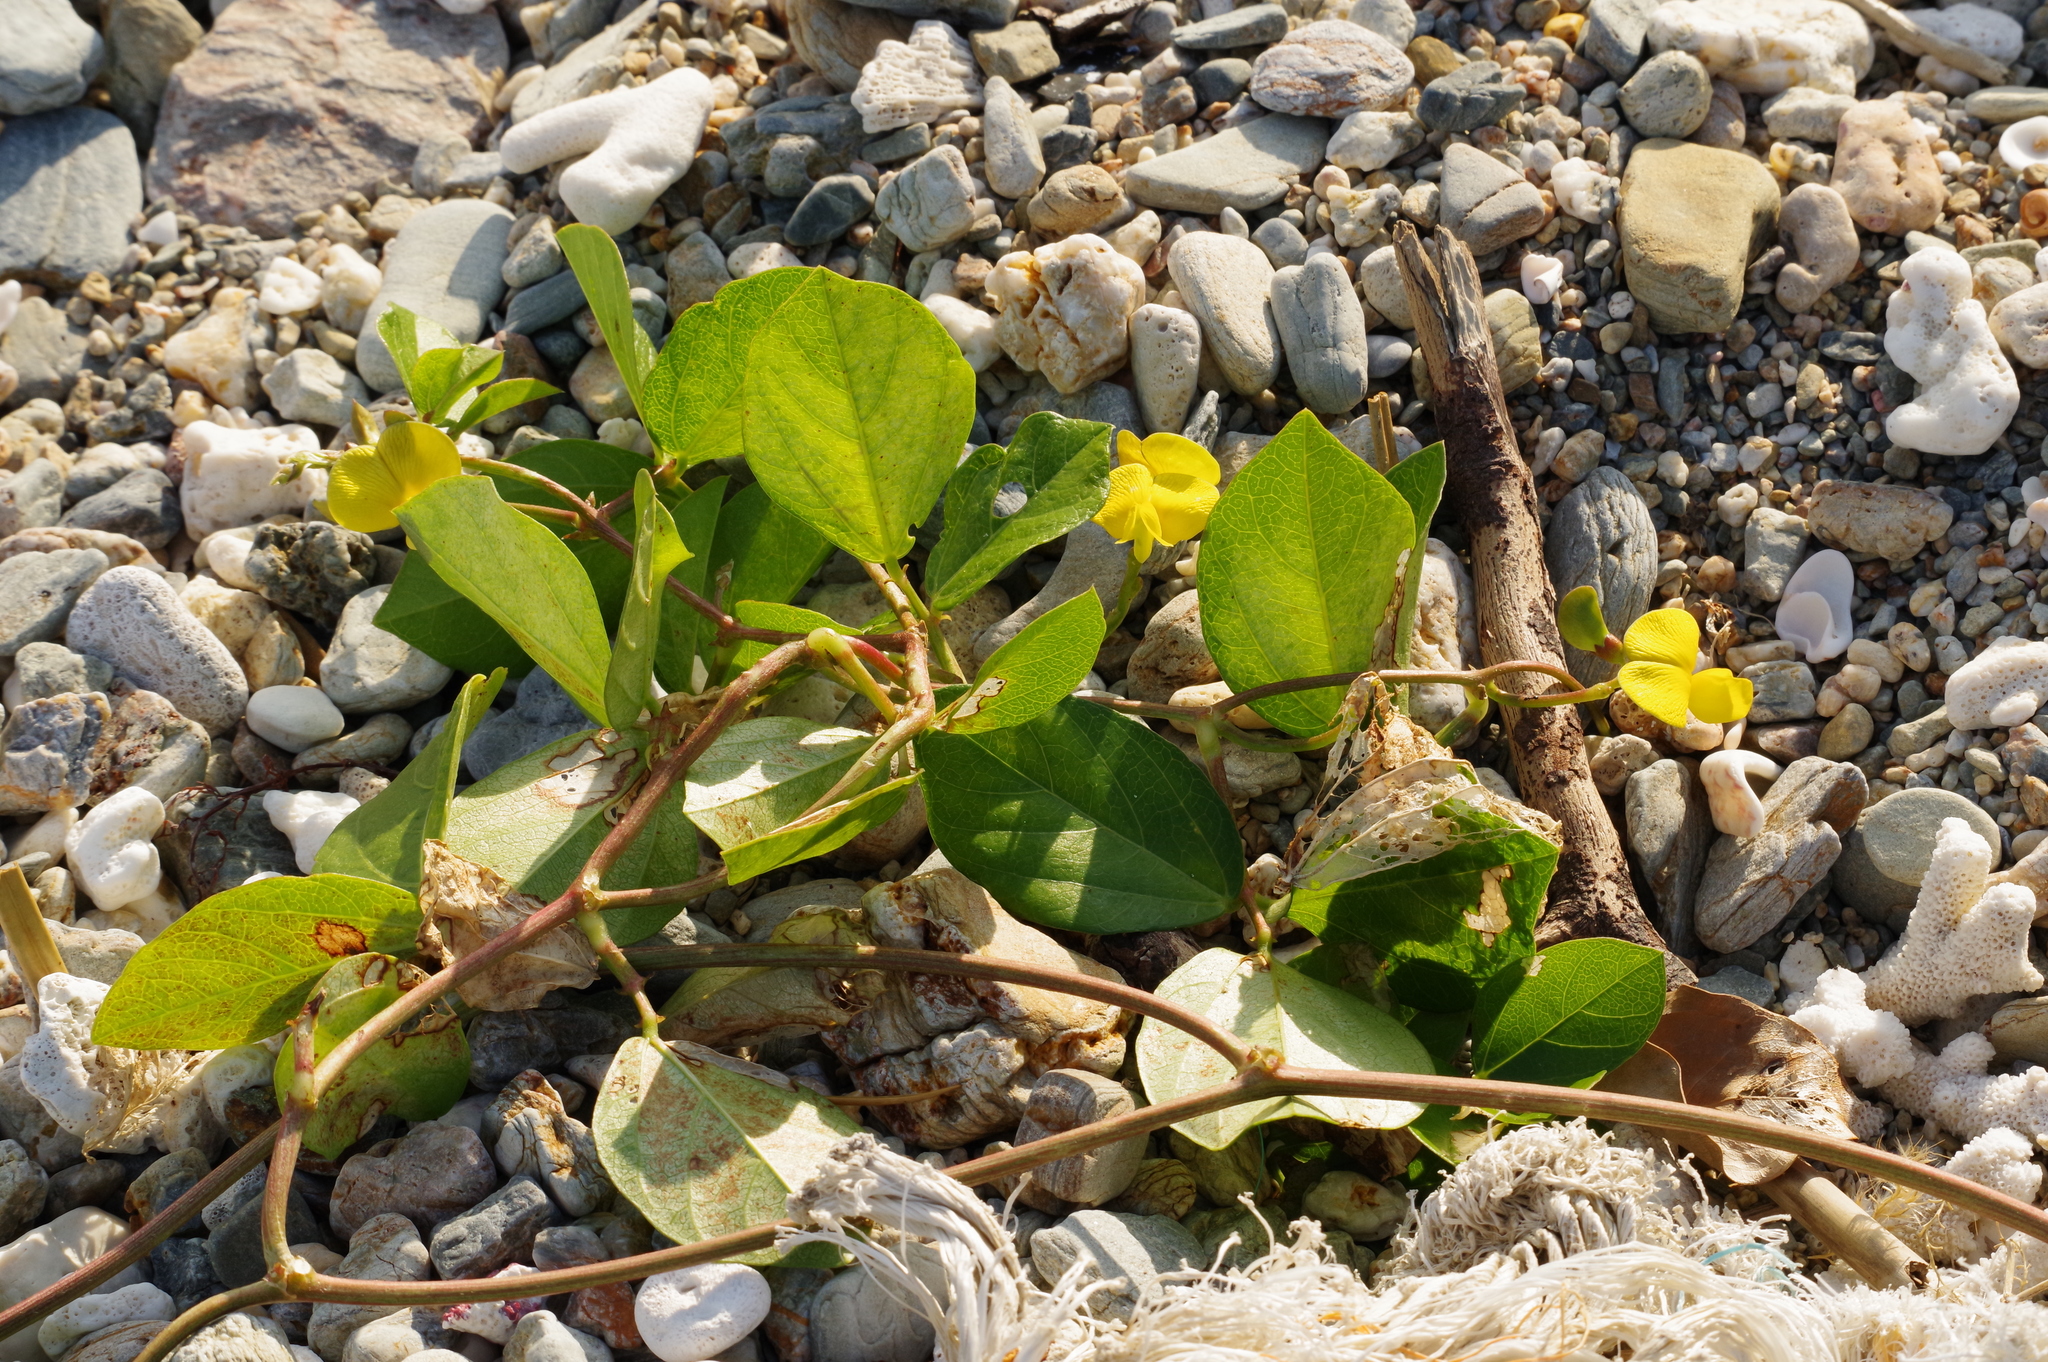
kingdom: Plantae
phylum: Tracheophyta
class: Magnoliopsida
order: Fabales
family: Fabaceae
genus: Vigna
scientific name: Vigna marina
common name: Dune-bean
